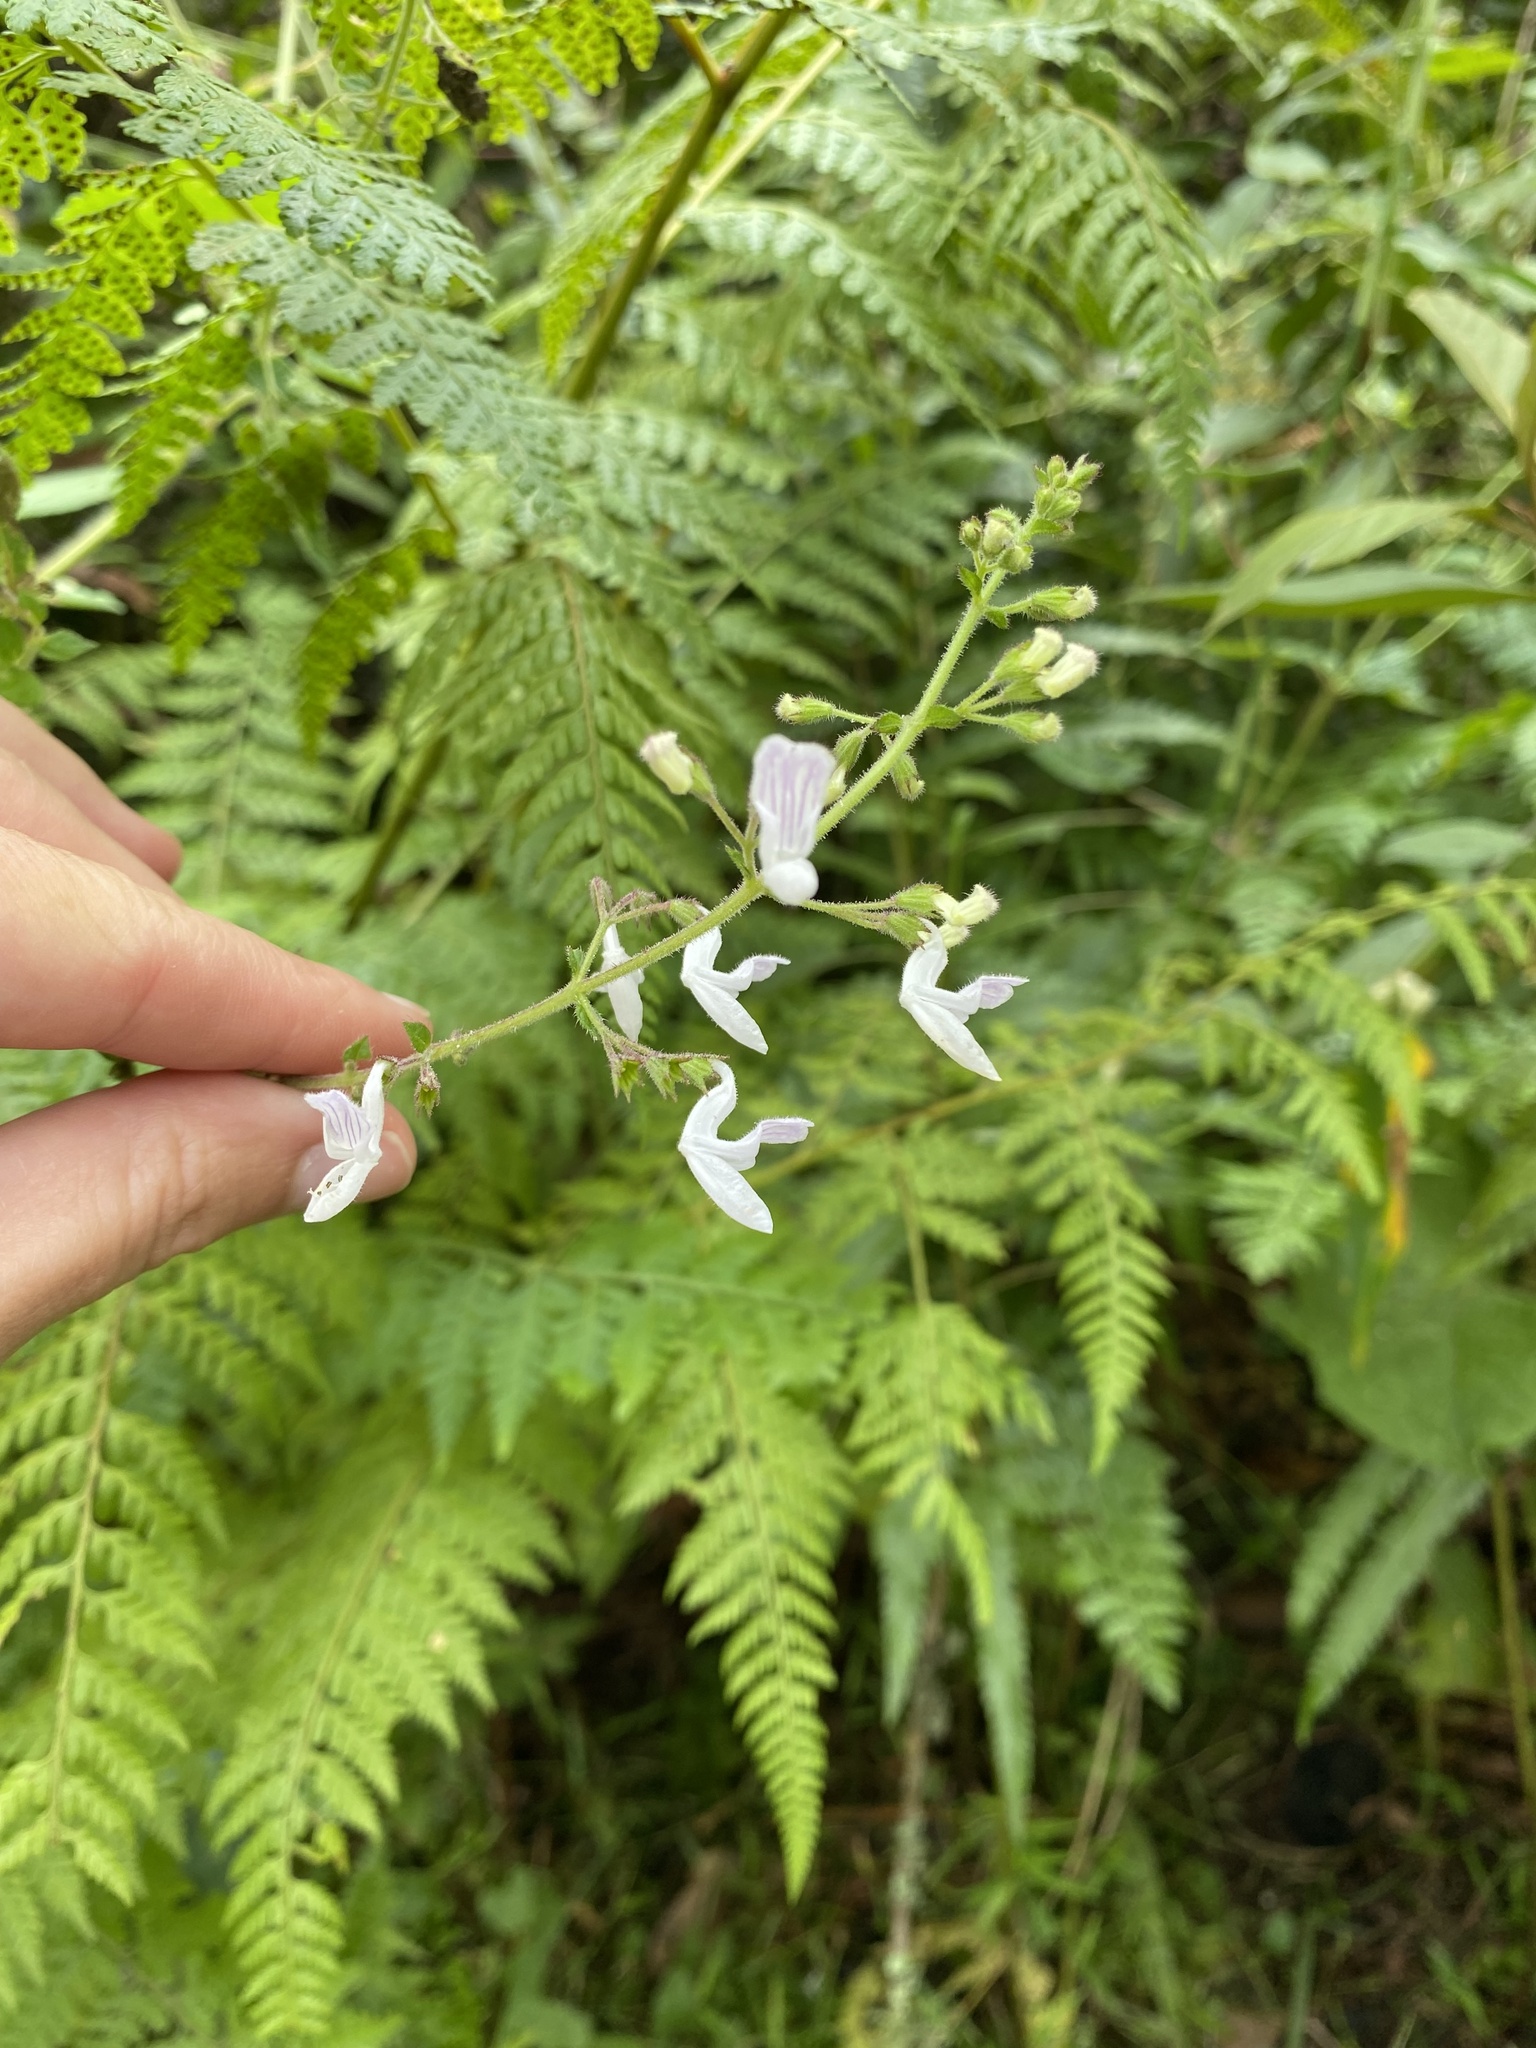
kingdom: Plantae
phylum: Tracheophyta
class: Magnoliopsida
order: Lamiales
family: Lamiaceae
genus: Equilabium
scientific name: Equilabium laxiflorum
